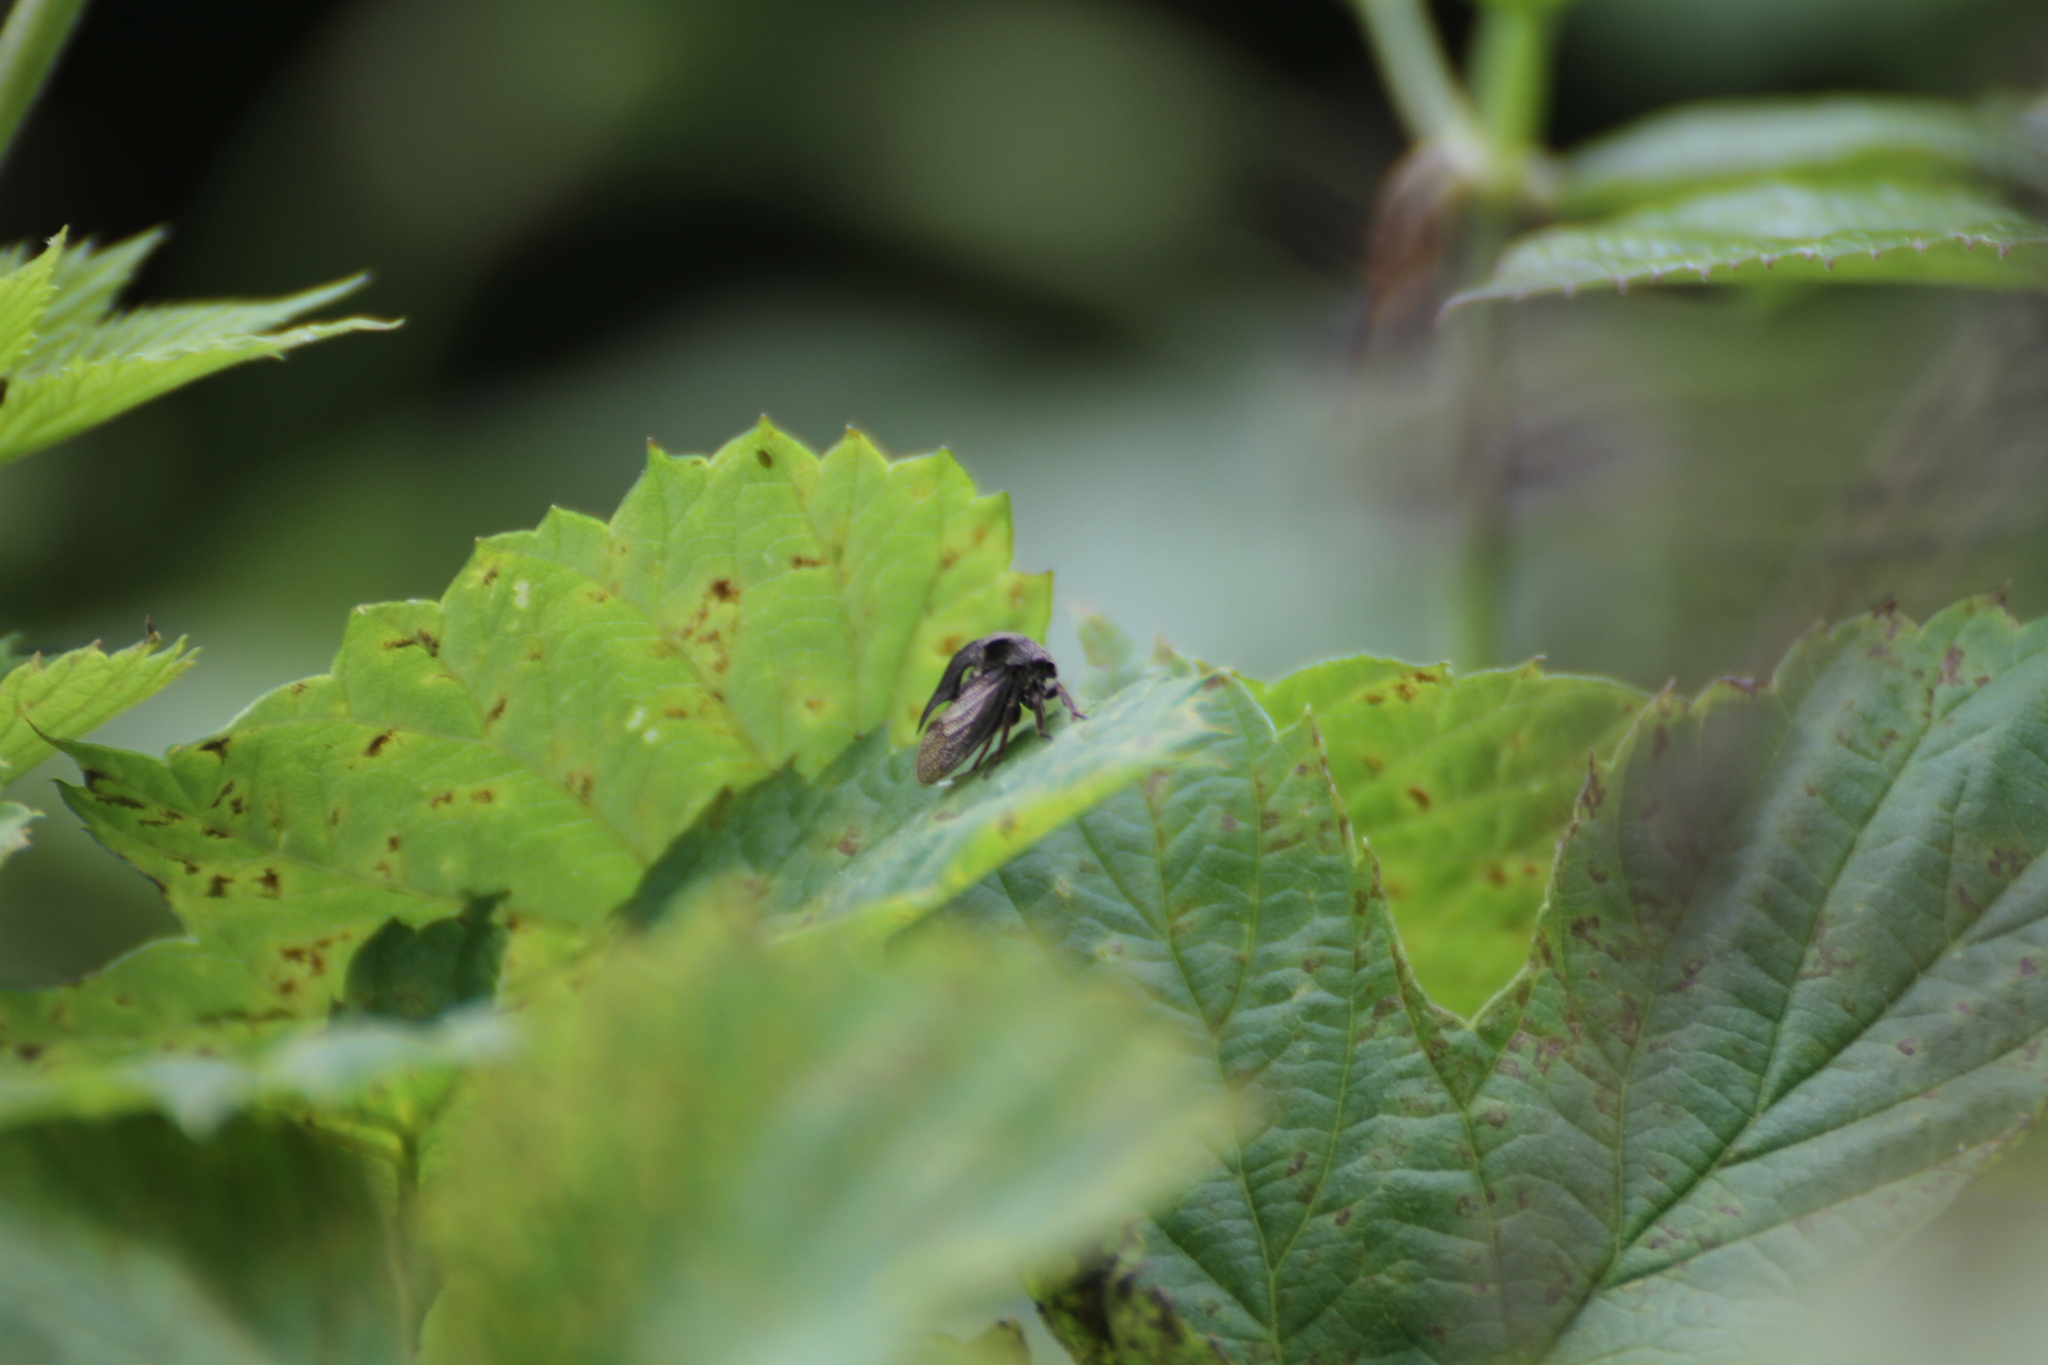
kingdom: Animalia
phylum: Arthropoda
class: Insecta
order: Hemiptera
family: Membracidae
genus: Centrotus
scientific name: Centrotus cornuta
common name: Treehopper
